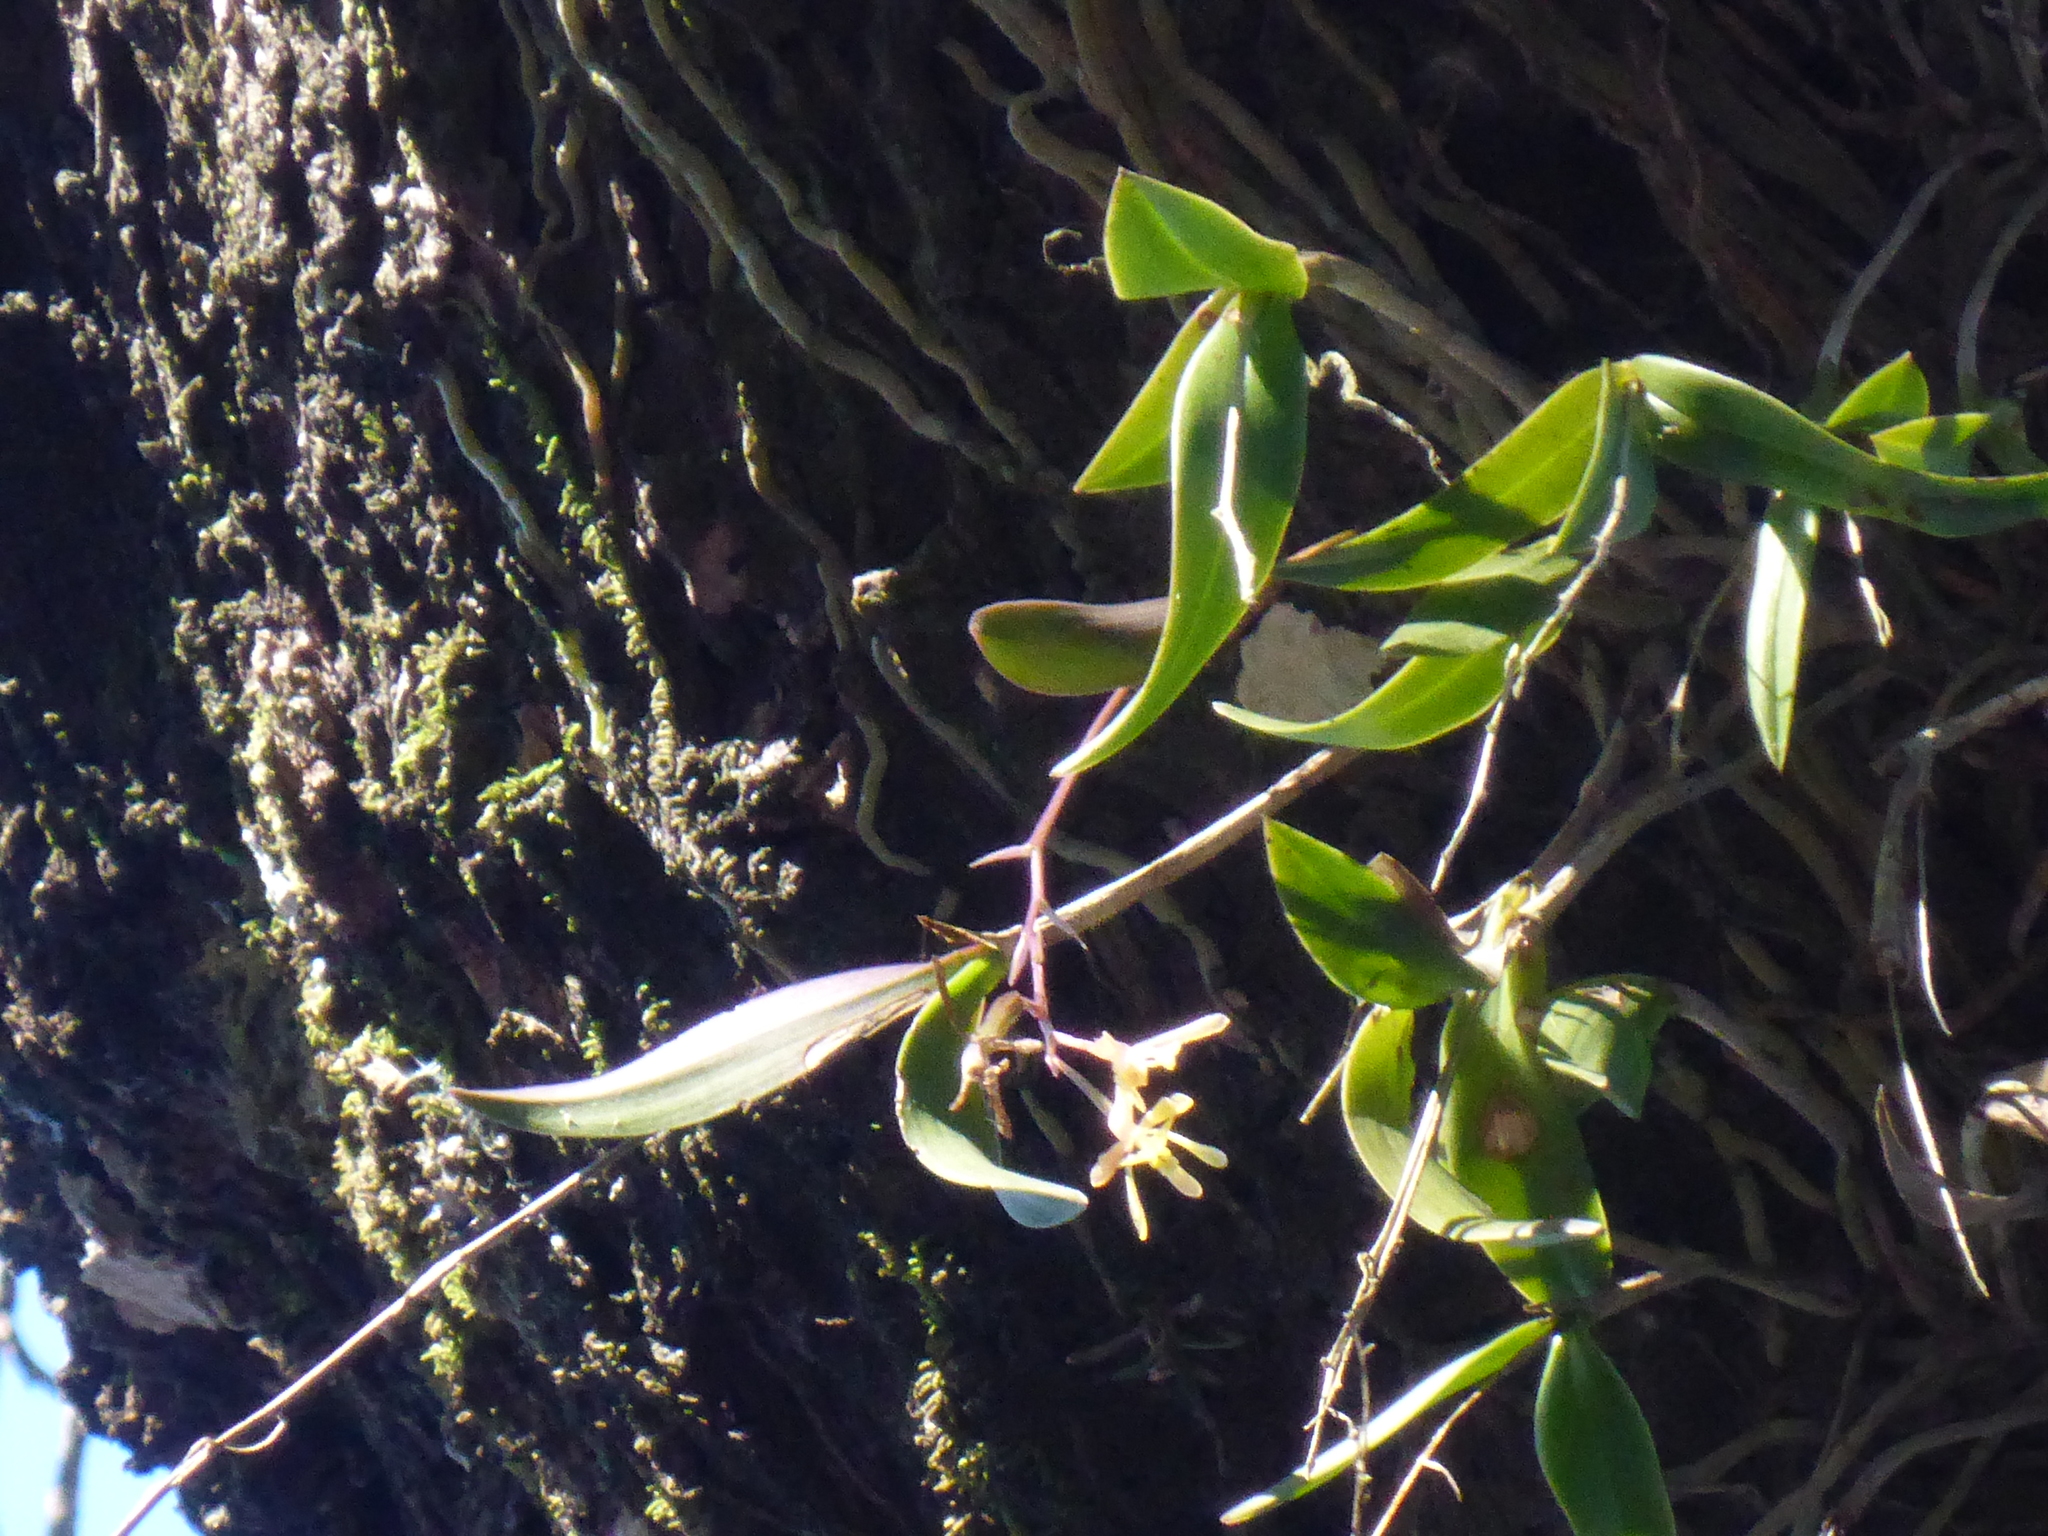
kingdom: Plantae
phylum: Tracheophyta
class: Liliopsida
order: Asparagales
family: Orchidaceae
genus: Epidendrum
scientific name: Epidendrum conopseum
